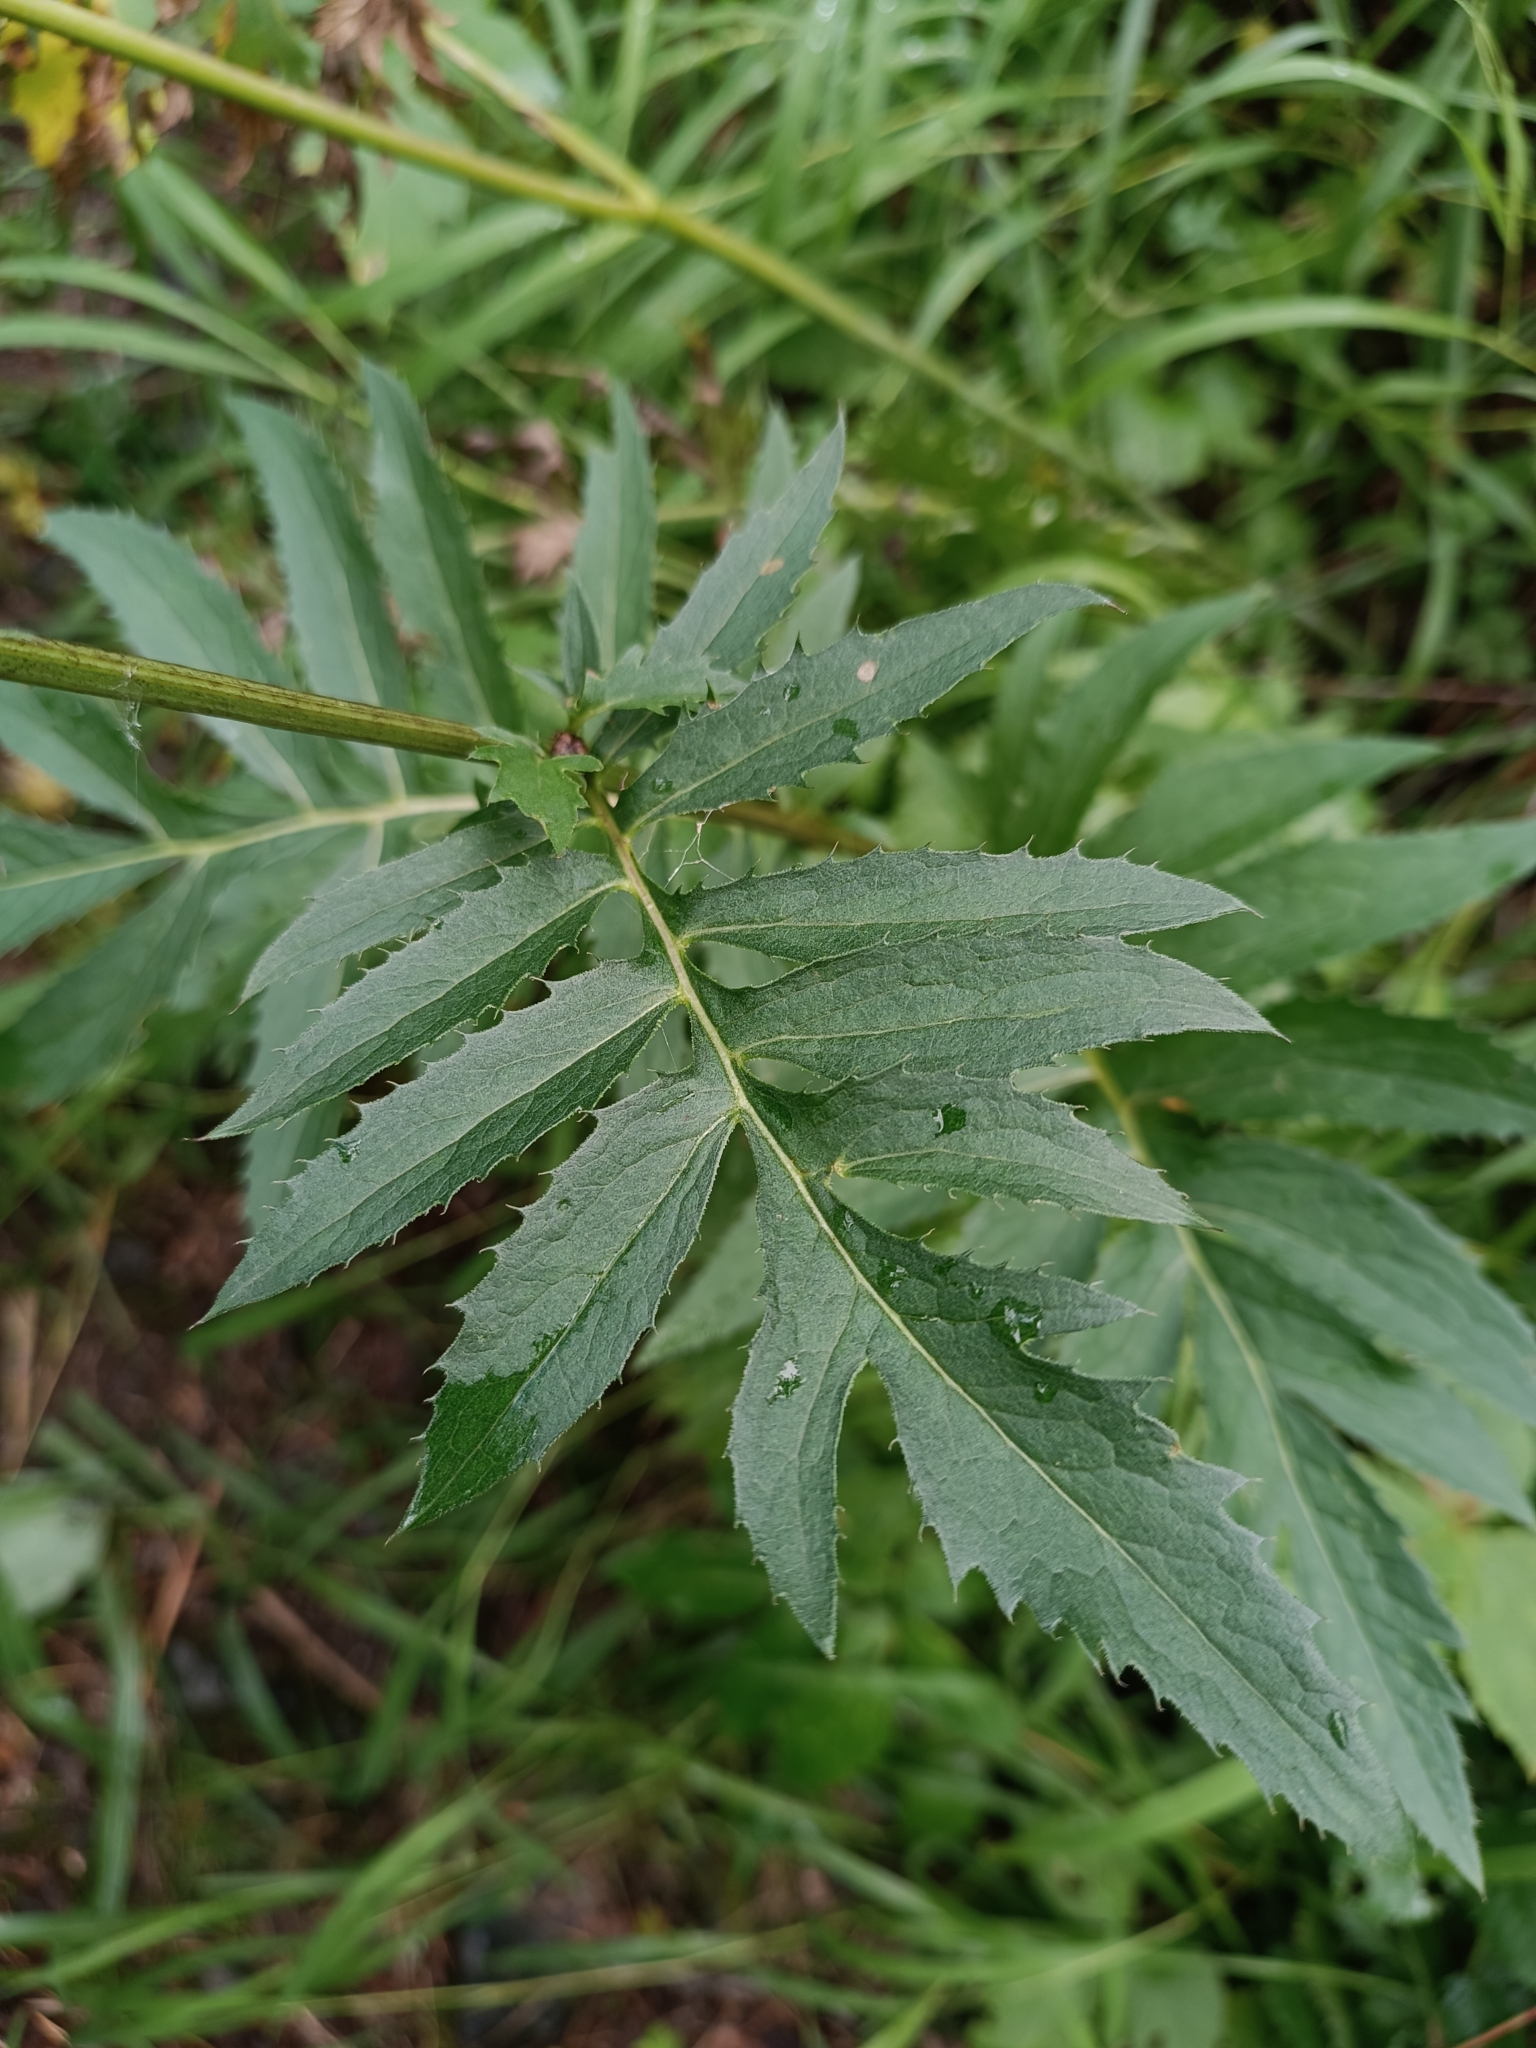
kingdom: Plantae
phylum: Tracheophyta
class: Magnoliopsida
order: Asterales
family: Asteraceae
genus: Serratula
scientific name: Serratula coronata
